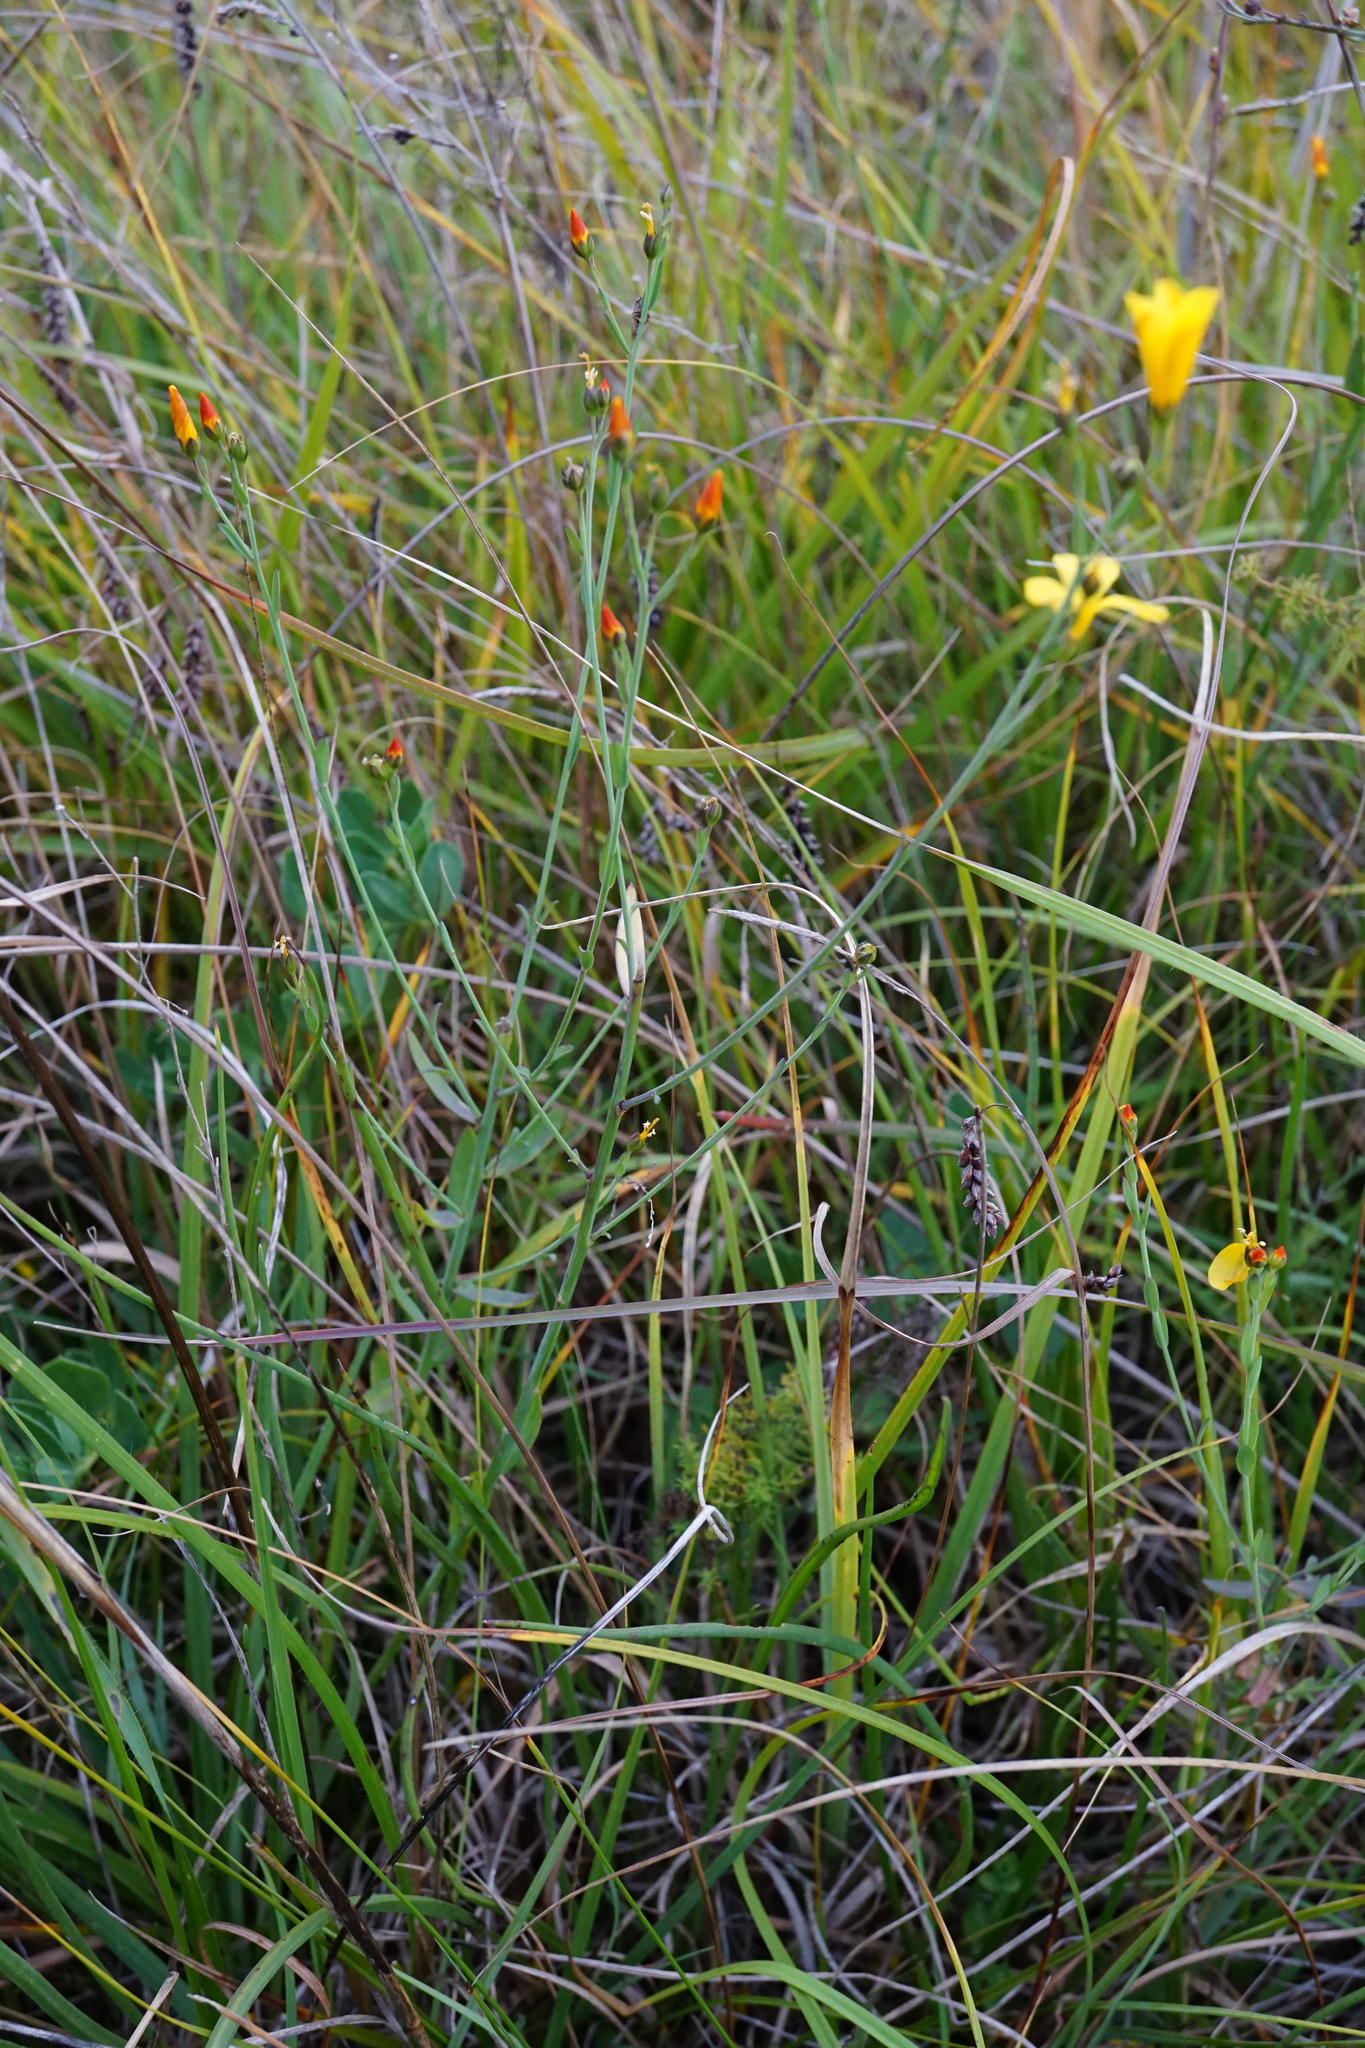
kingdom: Plantae
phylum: Tracheophyta
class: Magnoliopsida
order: Malpighiales
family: Linaceae
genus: Linum
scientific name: Linum maritimum
